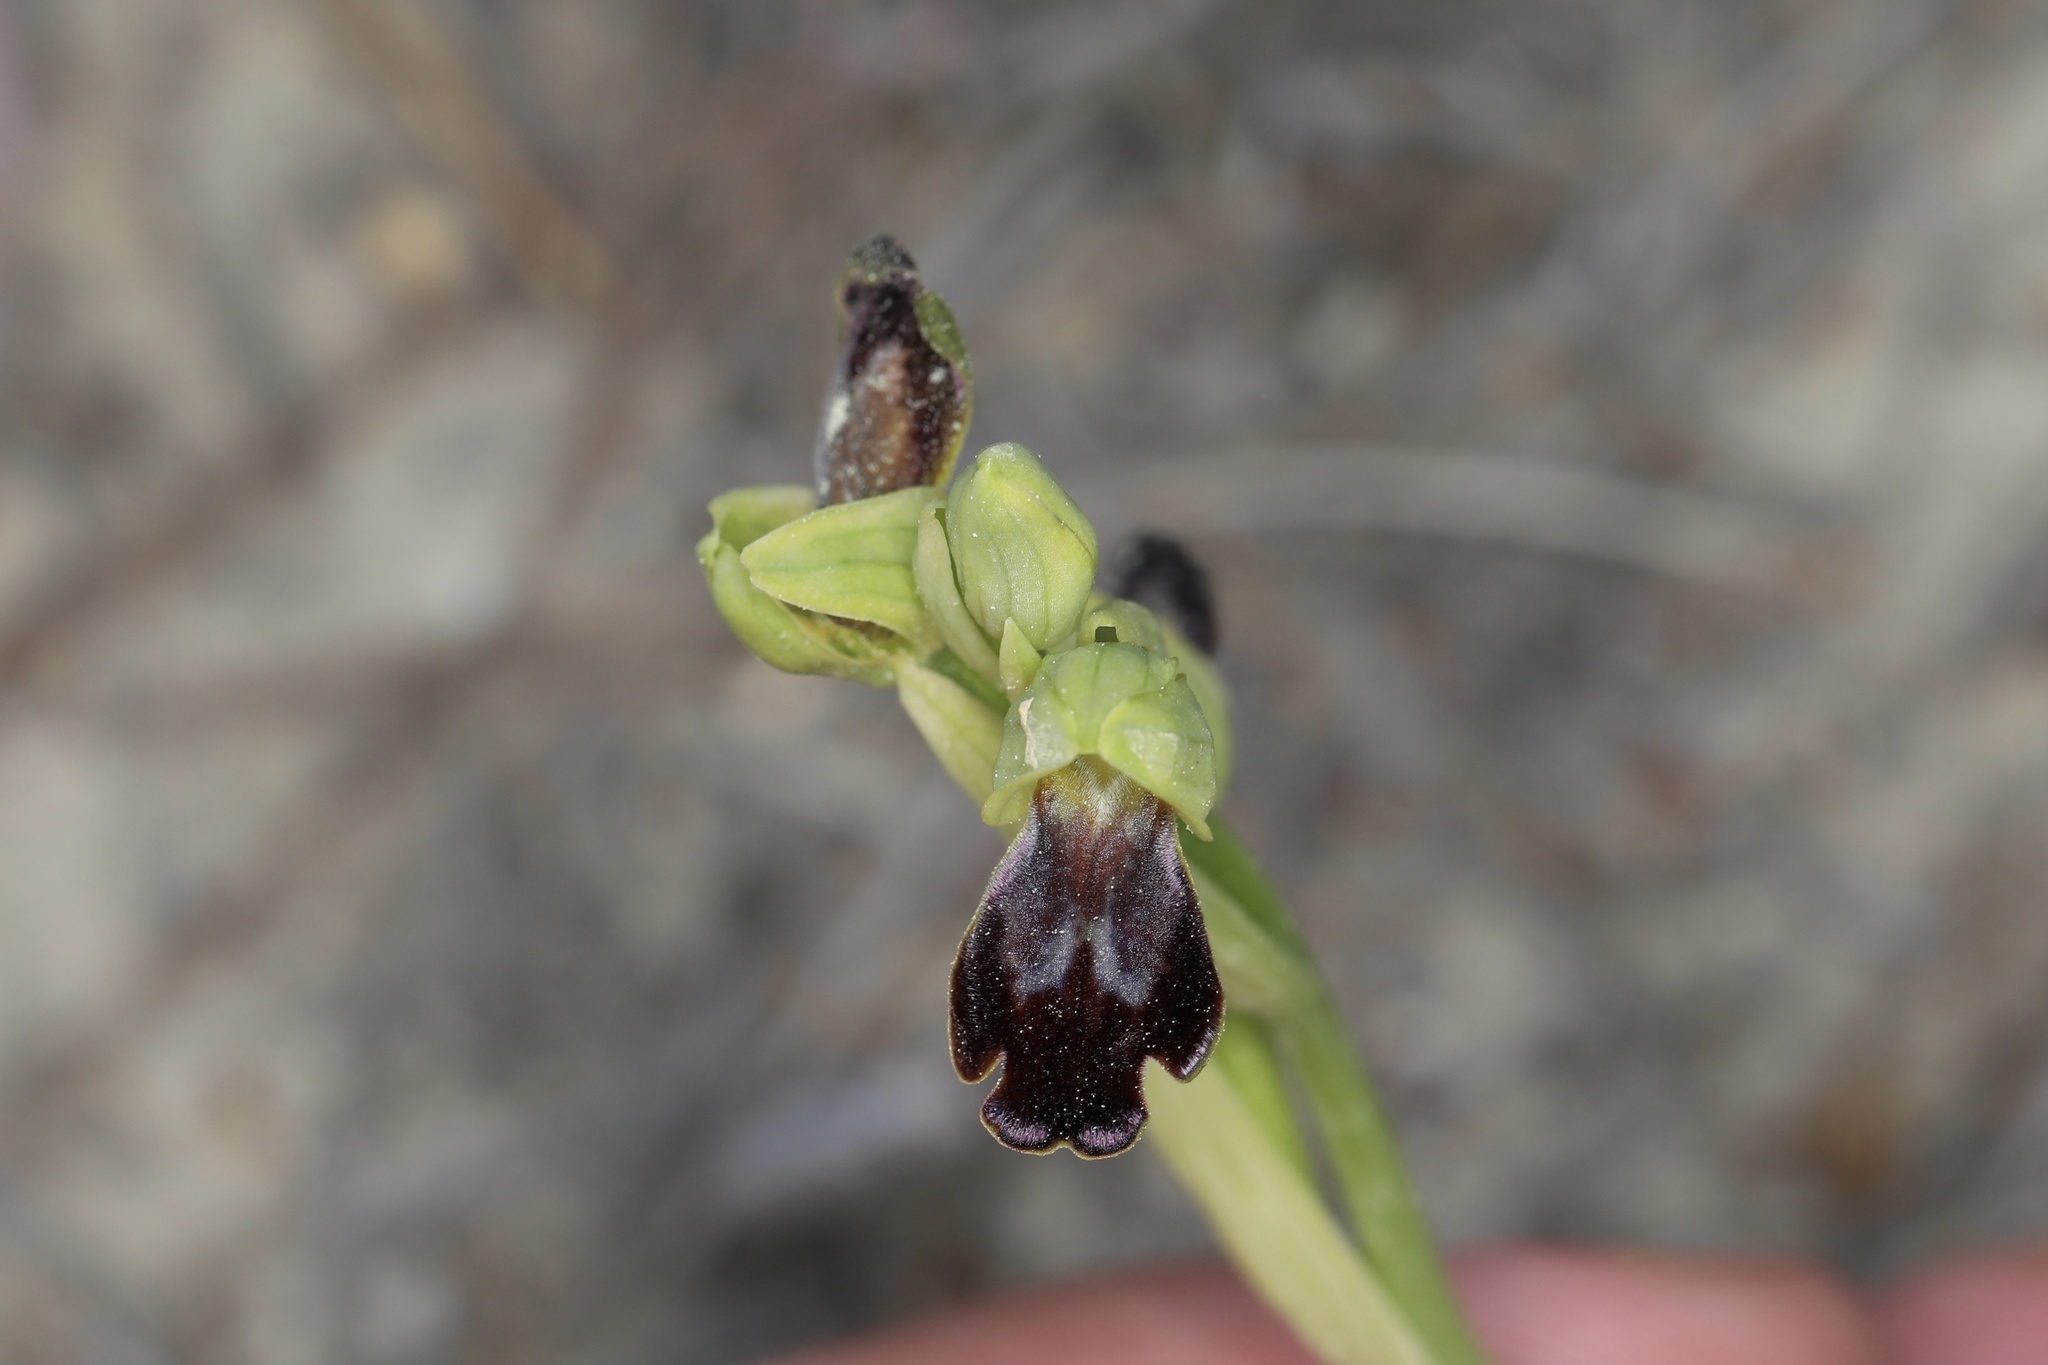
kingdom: Plantae
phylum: Tracheophyta
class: Liliopsida
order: Asparagales
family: Orchidaceae
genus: Ophrys
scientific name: Ophrys fusca
